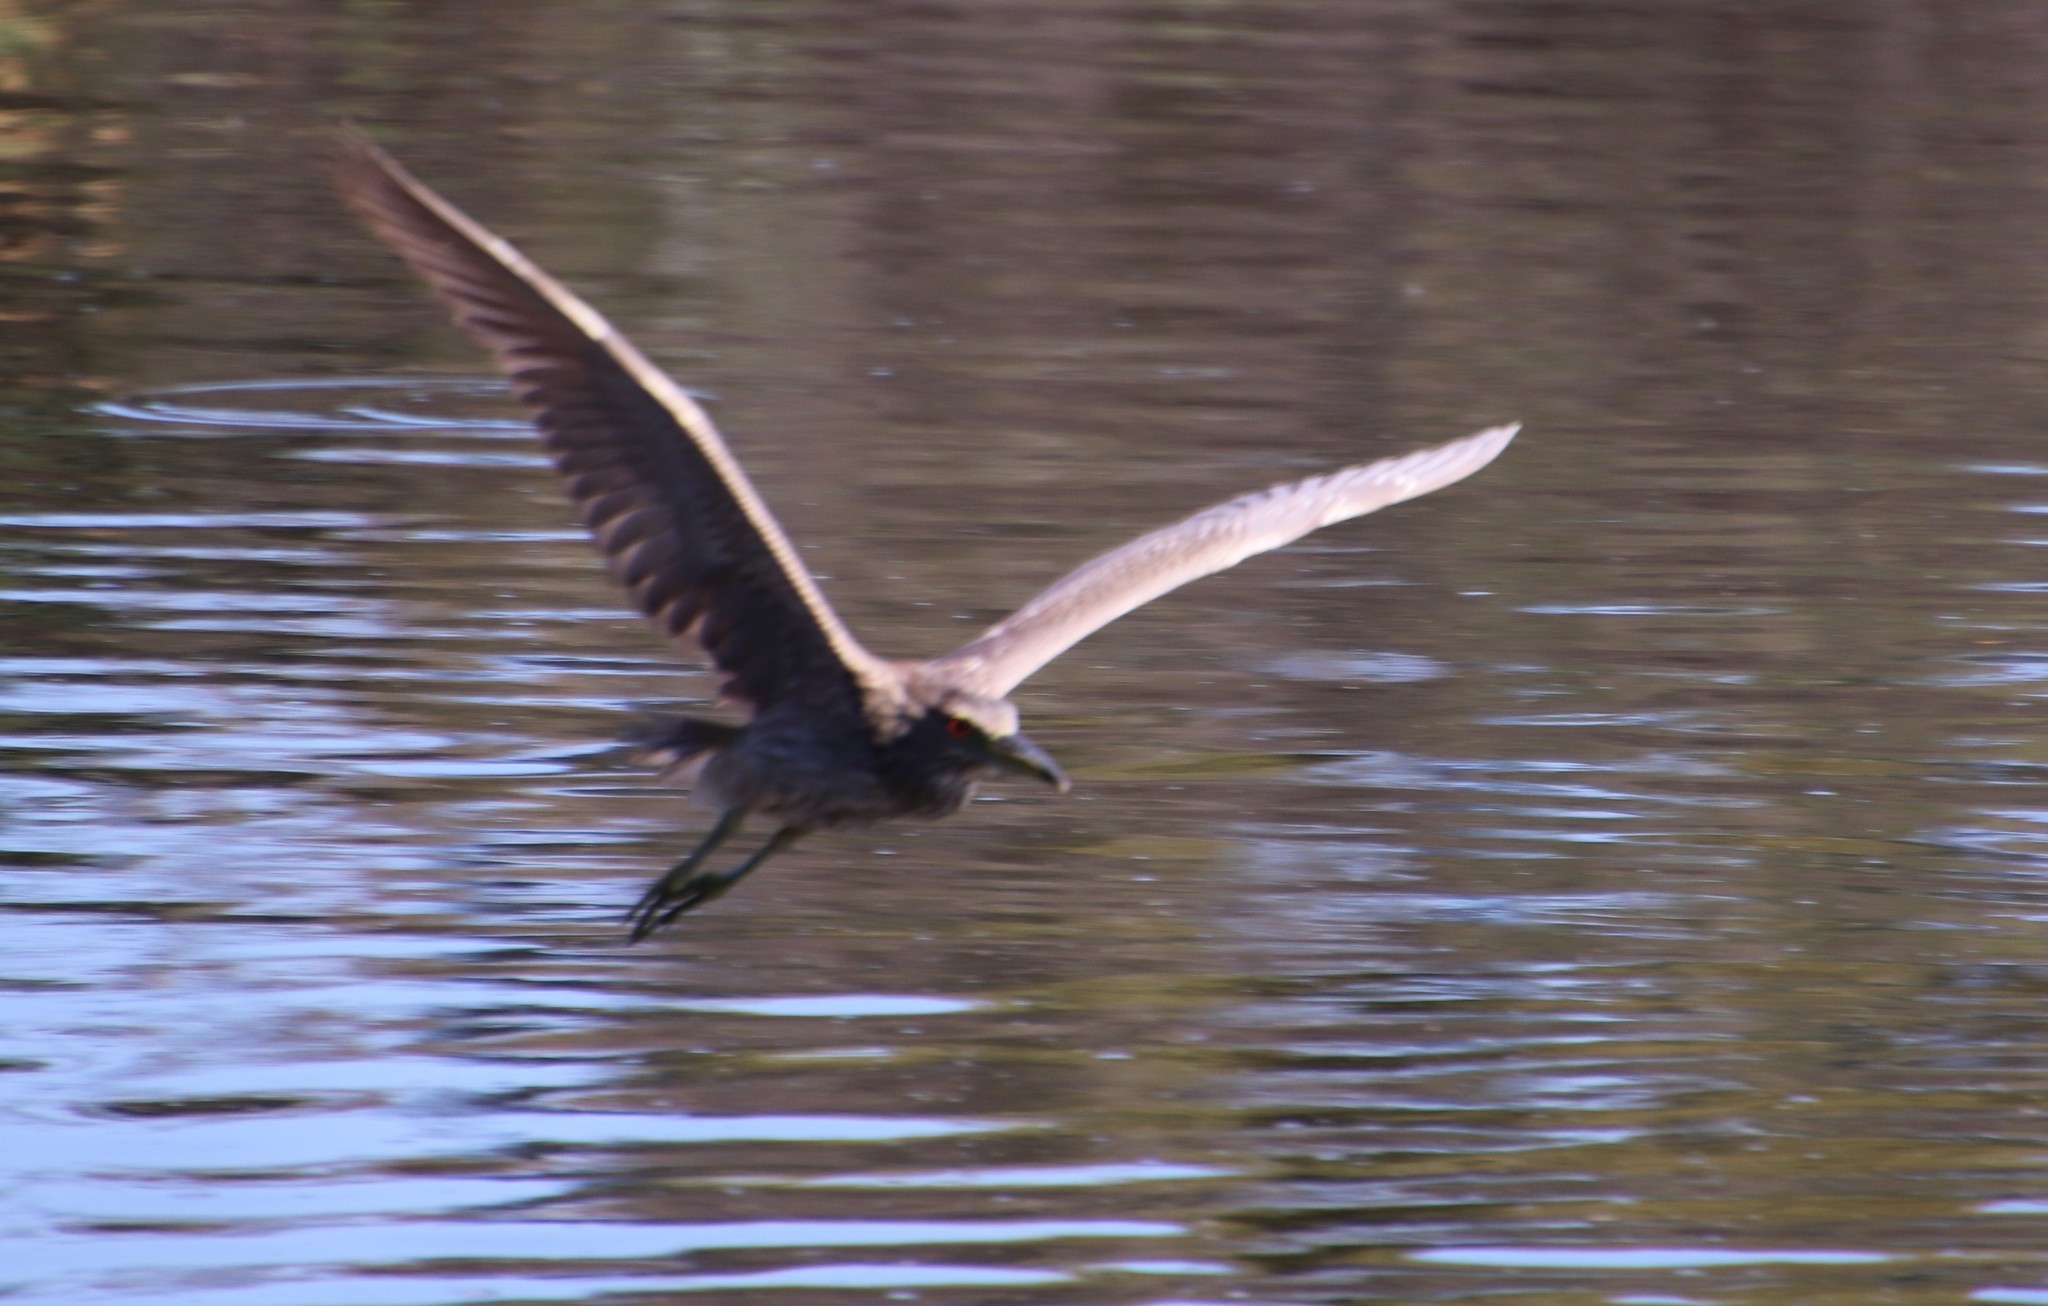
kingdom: Animalia
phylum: Chordata
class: Aves
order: Pelecaniformes
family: Ardeidae
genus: Nycticorax
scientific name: Nycticorax nycticorax
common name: Black-crowned night heron
